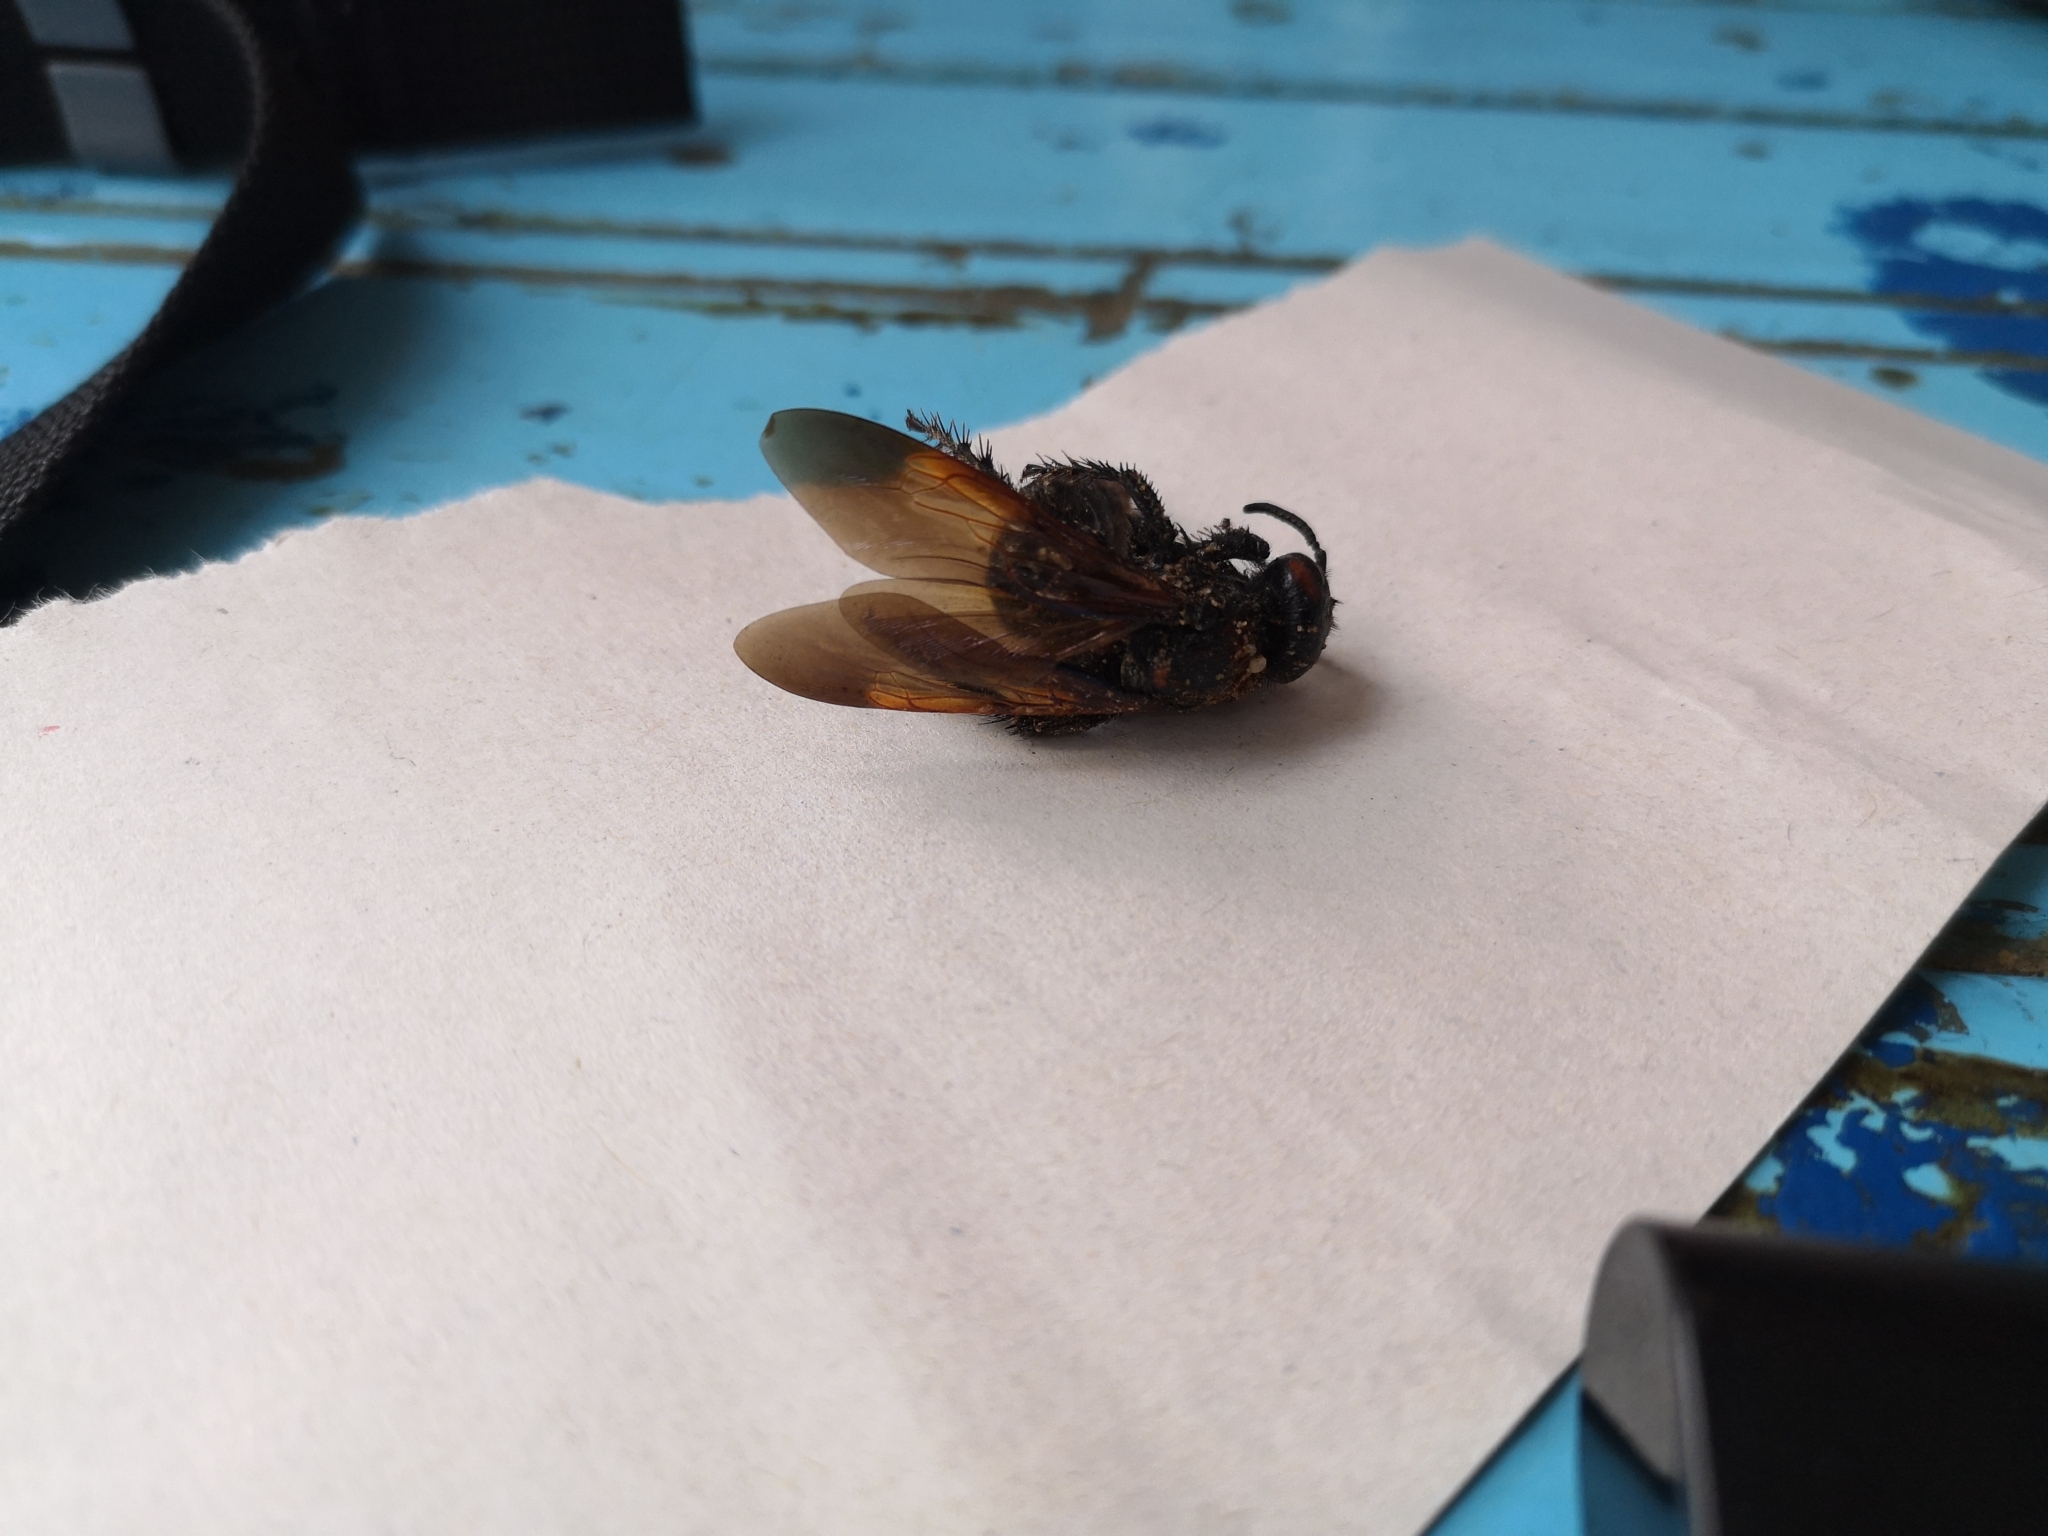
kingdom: Animalia
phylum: Arthropoda
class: Insecta
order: Hymenoptera
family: Scoliidae
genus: Megascolia
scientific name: Megascolia maculata
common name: Mammoth wasp
